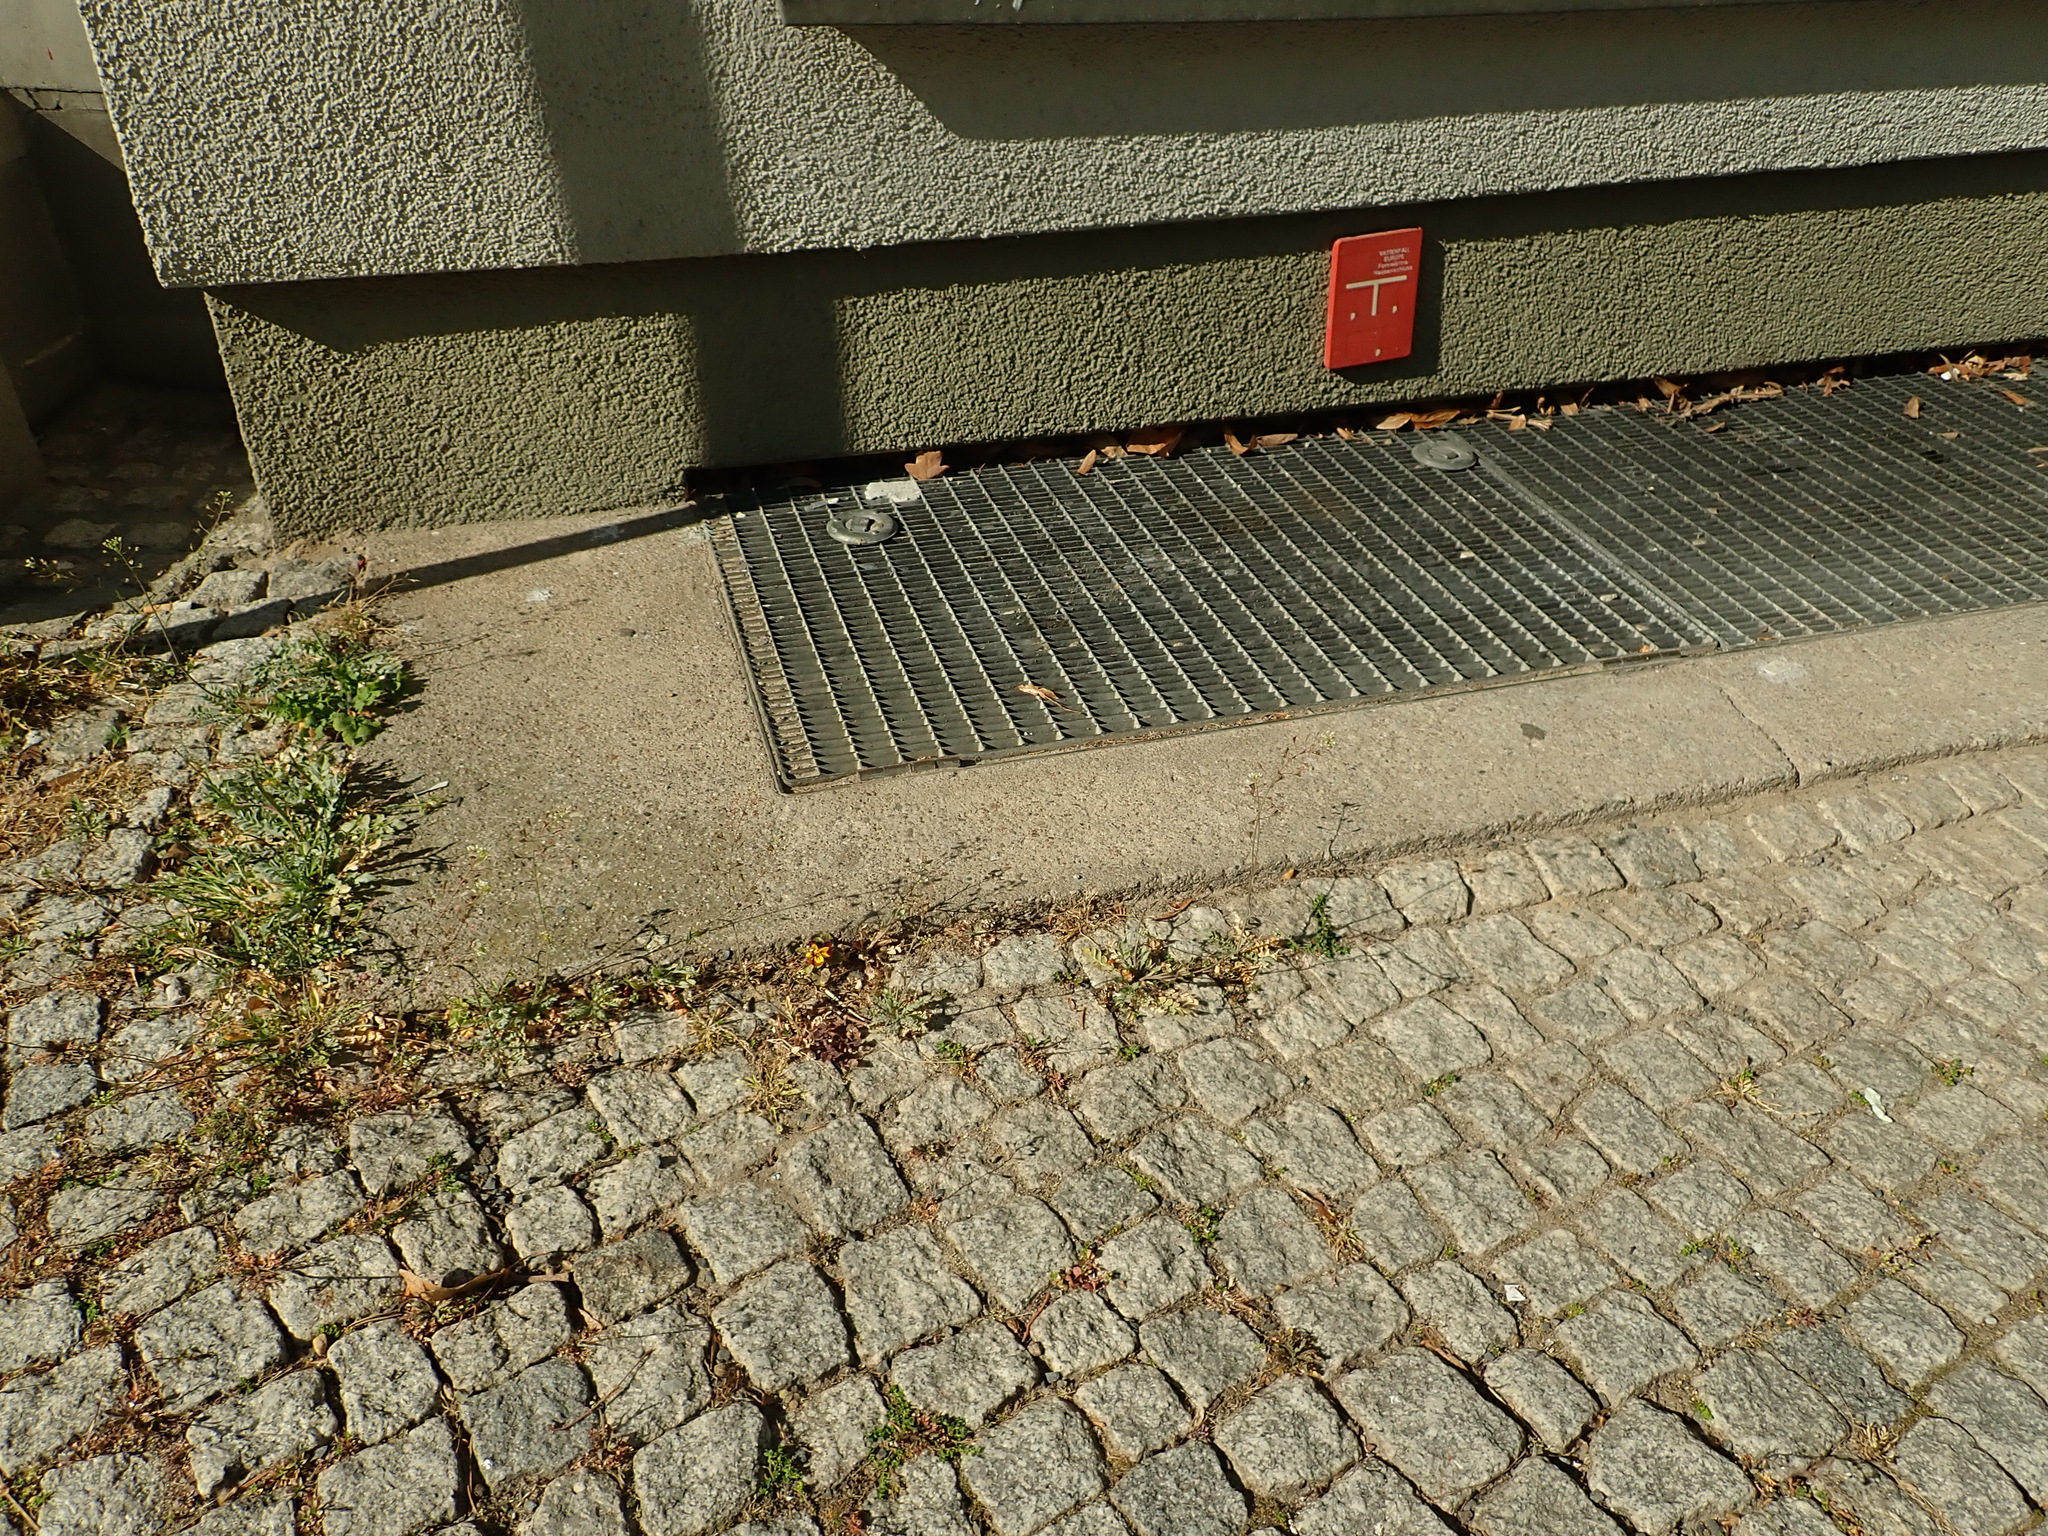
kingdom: Plantae
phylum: Tracheophyta
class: Magnoliopsida
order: Malpighiales
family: Violaceae
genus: Viola
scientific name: Viola wittrockiana
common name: Garden pansy
